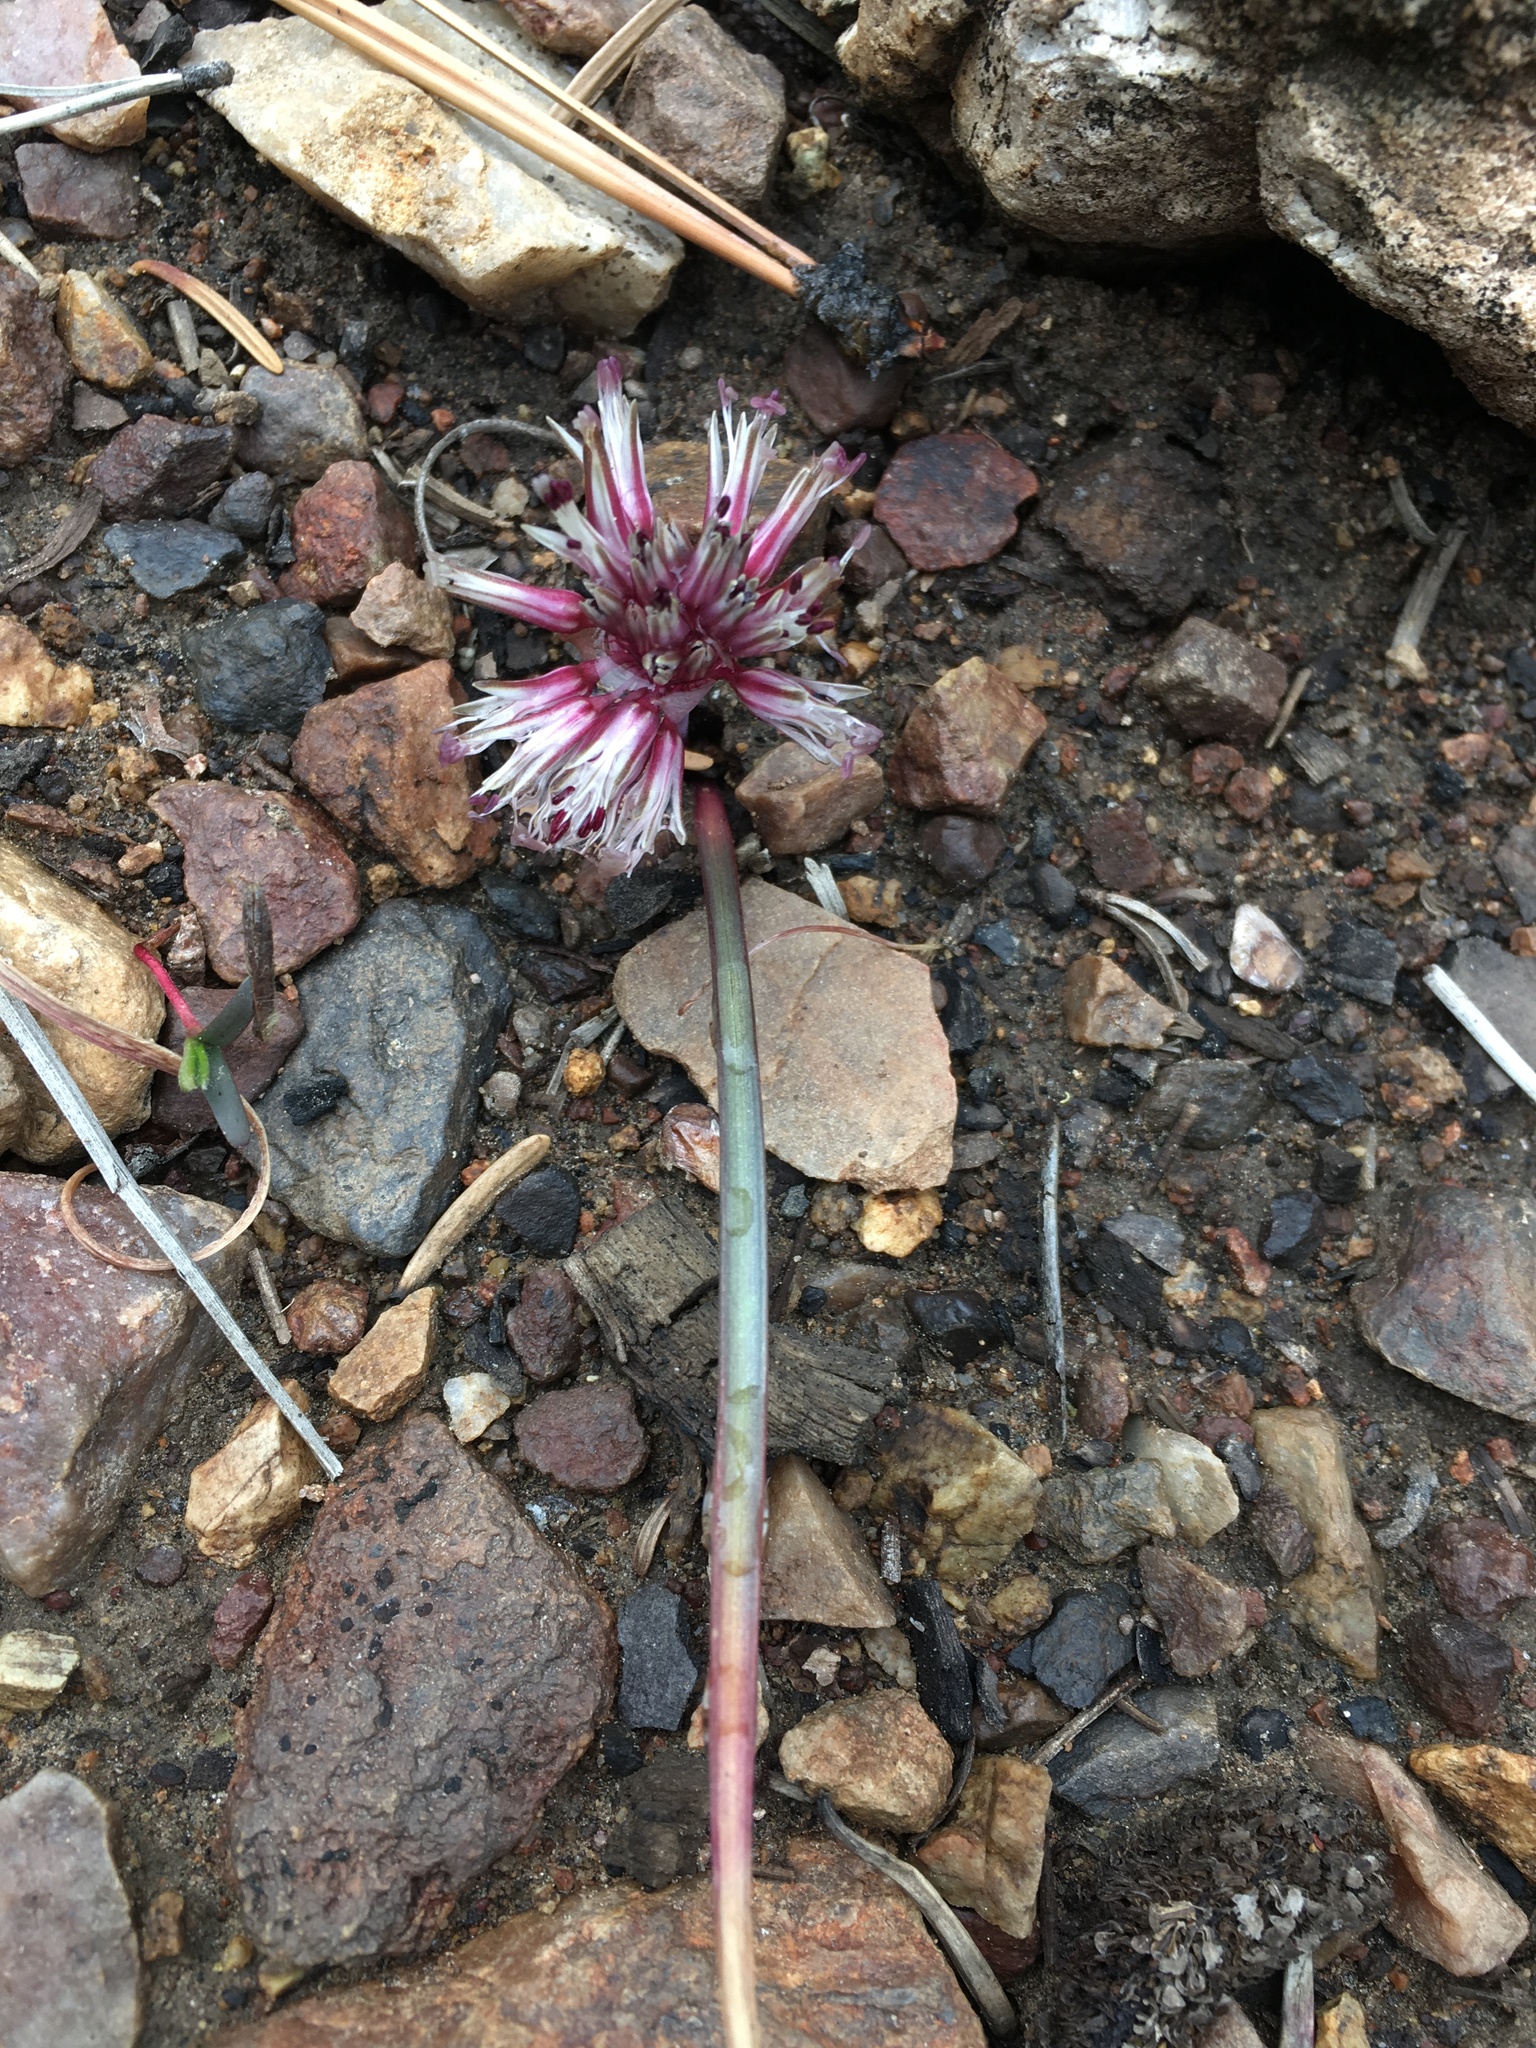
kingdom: Plantae
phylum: Tracheophyta
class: Liliopsida
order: Asparagales
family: Amaryllidaceae
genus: Allium
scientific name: Allium burlewii
